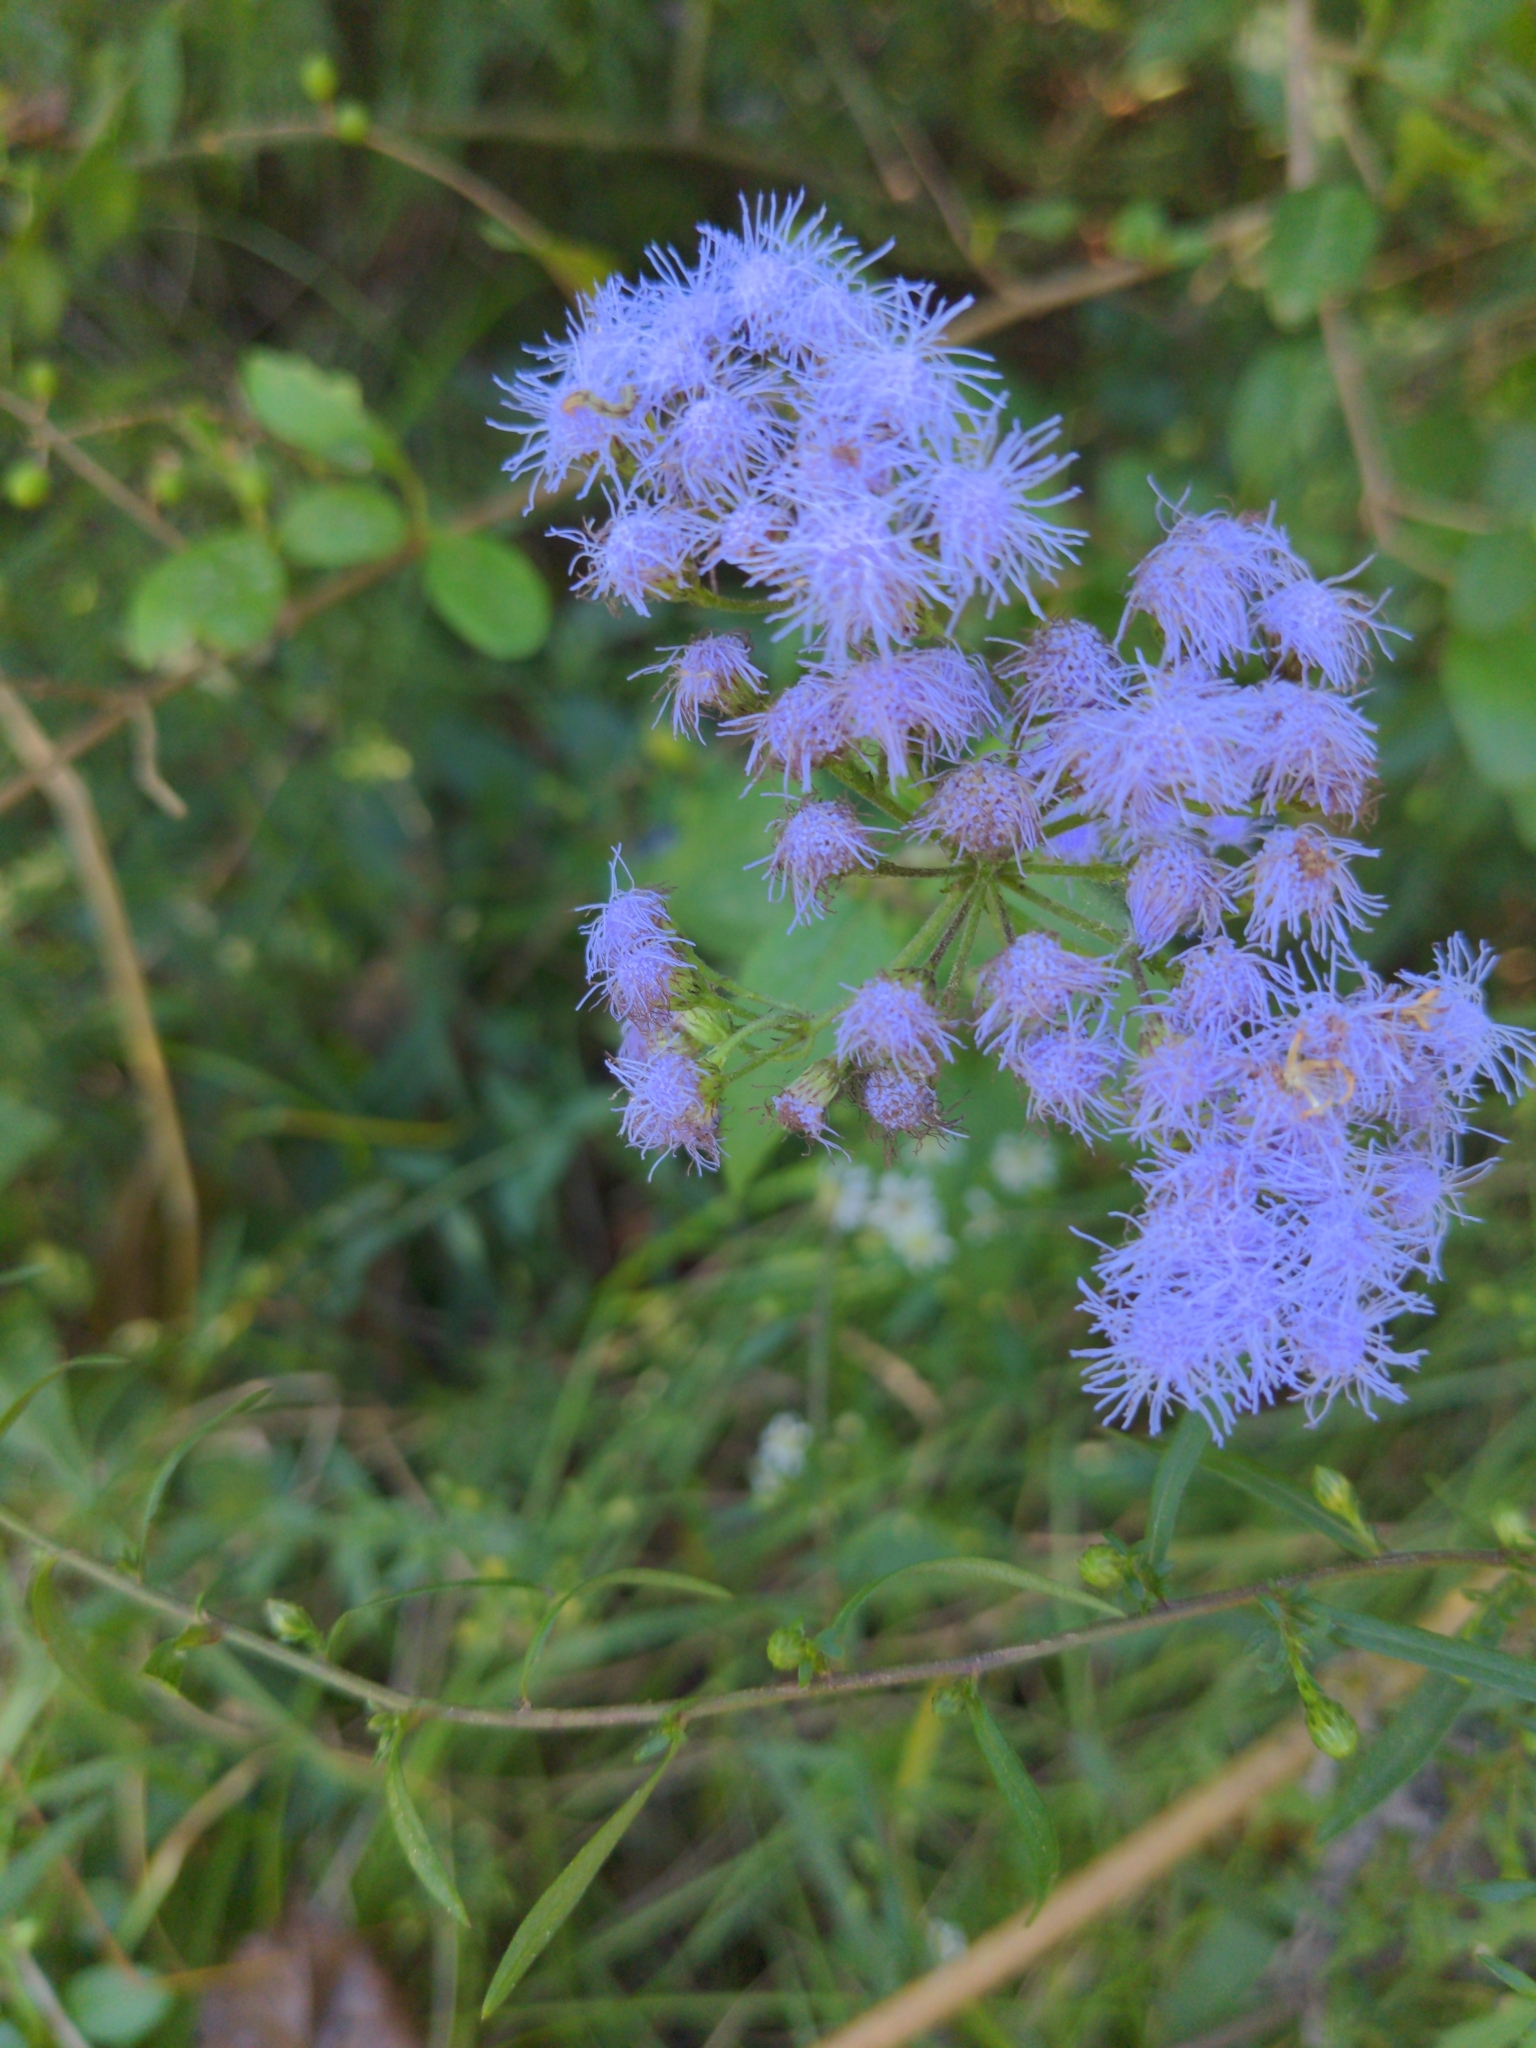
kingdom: Plantae
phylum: Tracheophyta
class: Magnoliopsida
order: Asterales
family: Asteraceae
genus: Conoclinium
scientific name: Conoclinium coelestinum
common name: Blue mistflower
